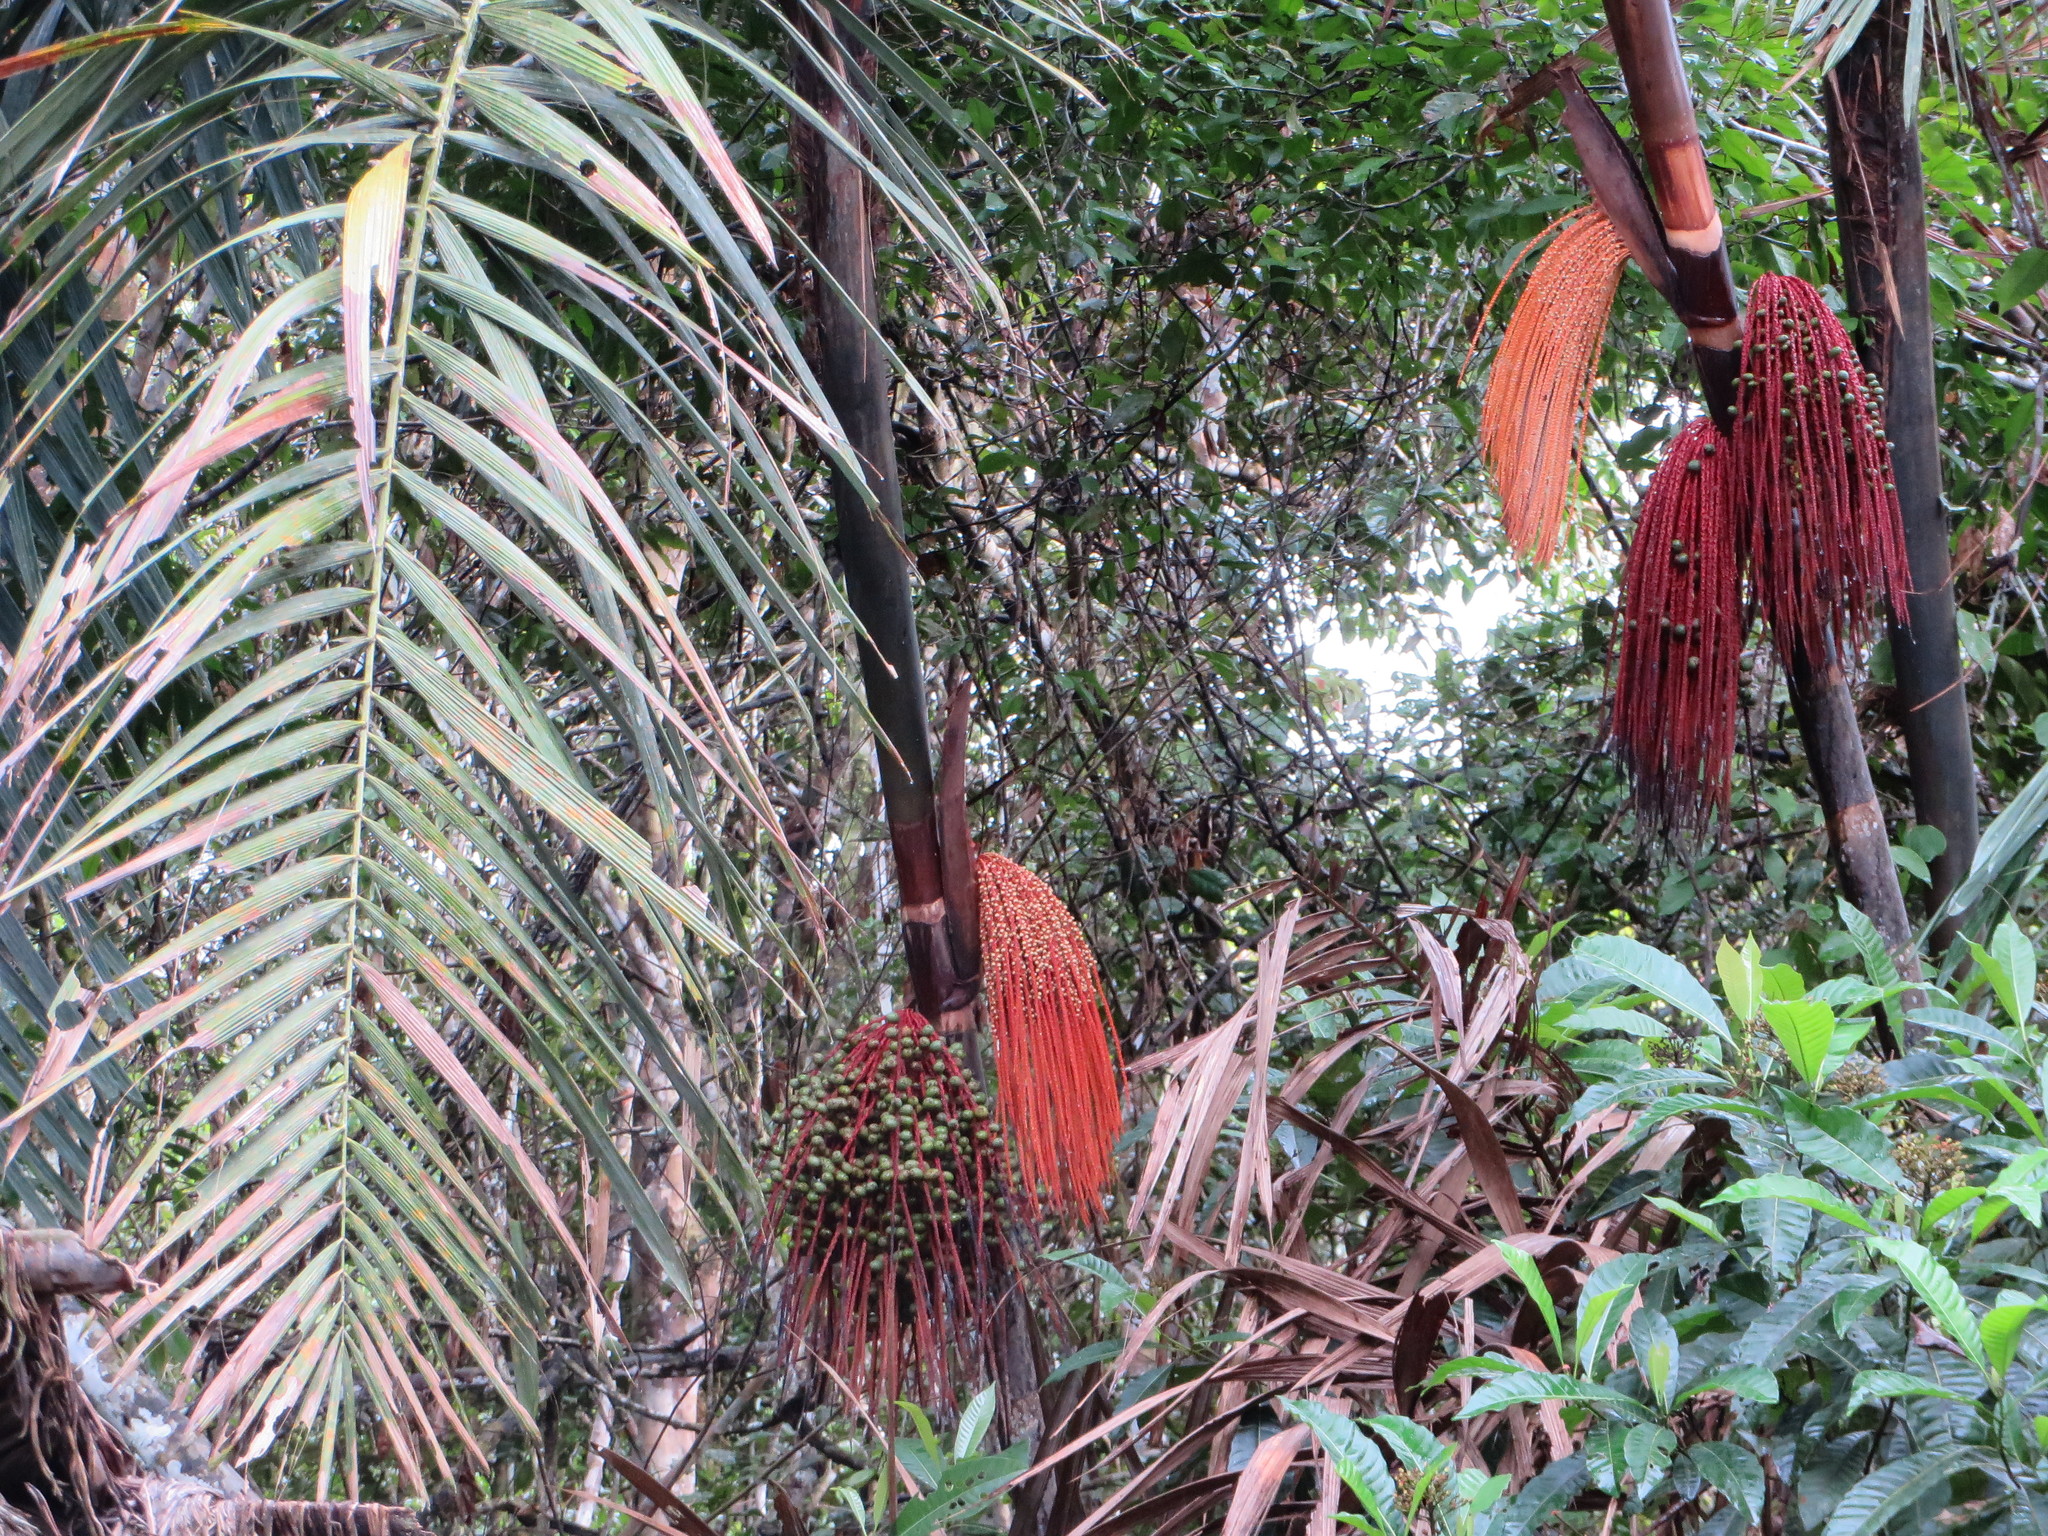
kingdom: Plantae
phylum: Tracheophyta
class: Liliopsida
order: Arecales
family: Arecaceae
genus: Oenocarpus
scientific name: Oenocarpus mapora
